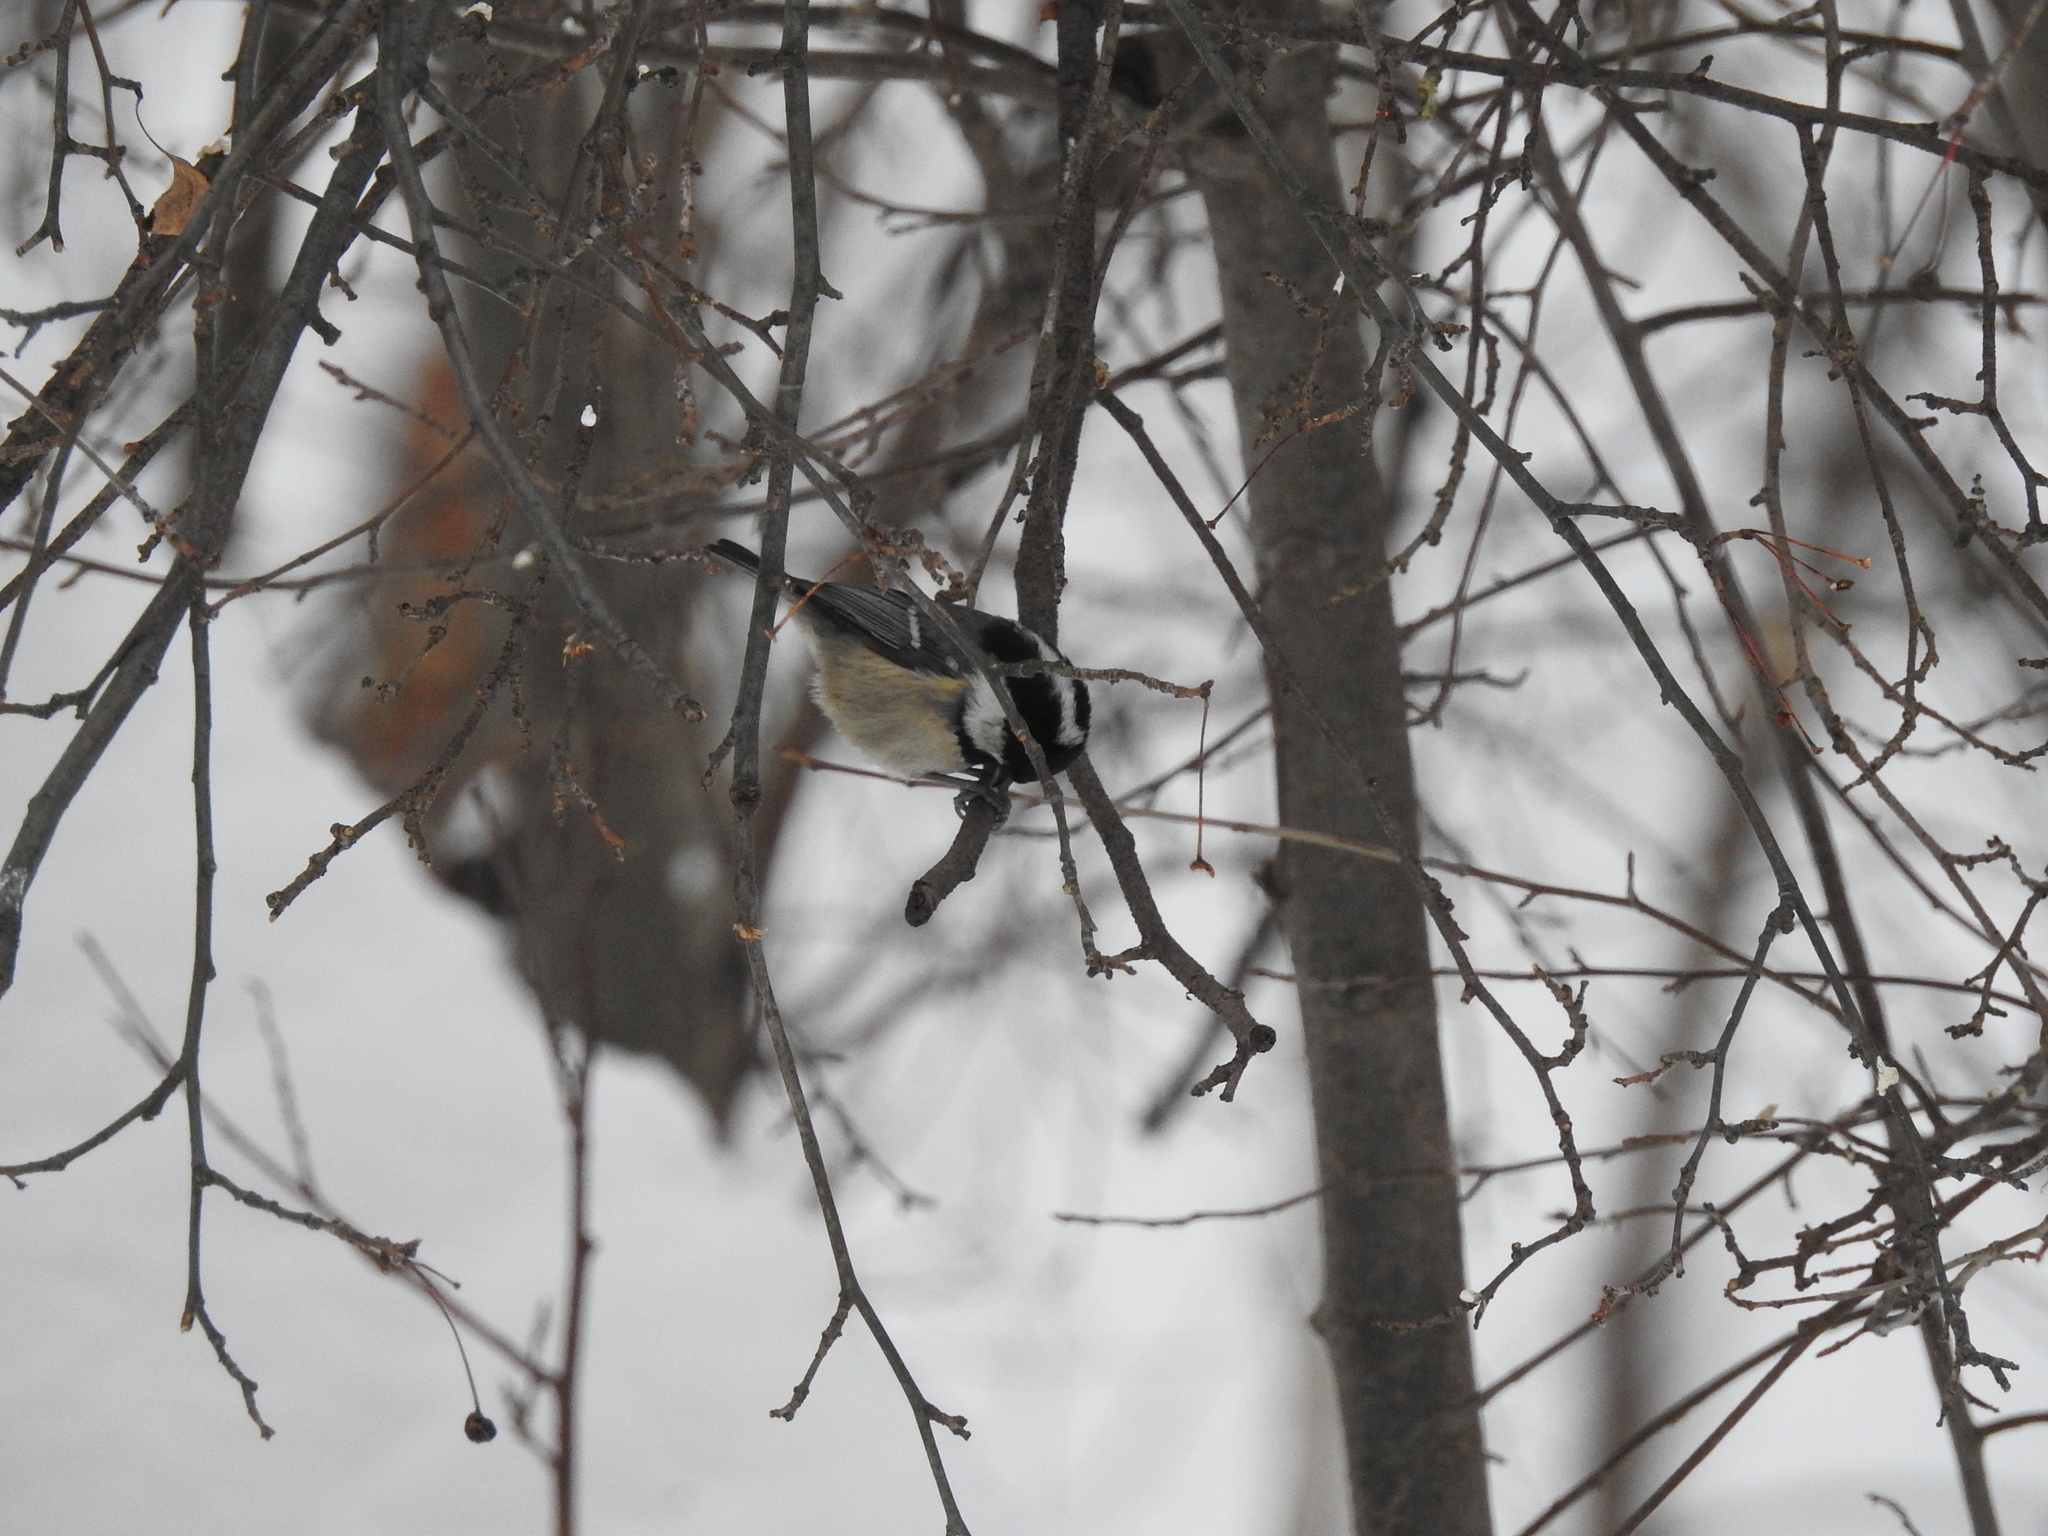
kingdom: Animalia
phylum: Chordata
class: Aves
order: Passeriformes
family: Paridae
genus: Periparus
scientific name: Periparus ater
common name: Coal tit
